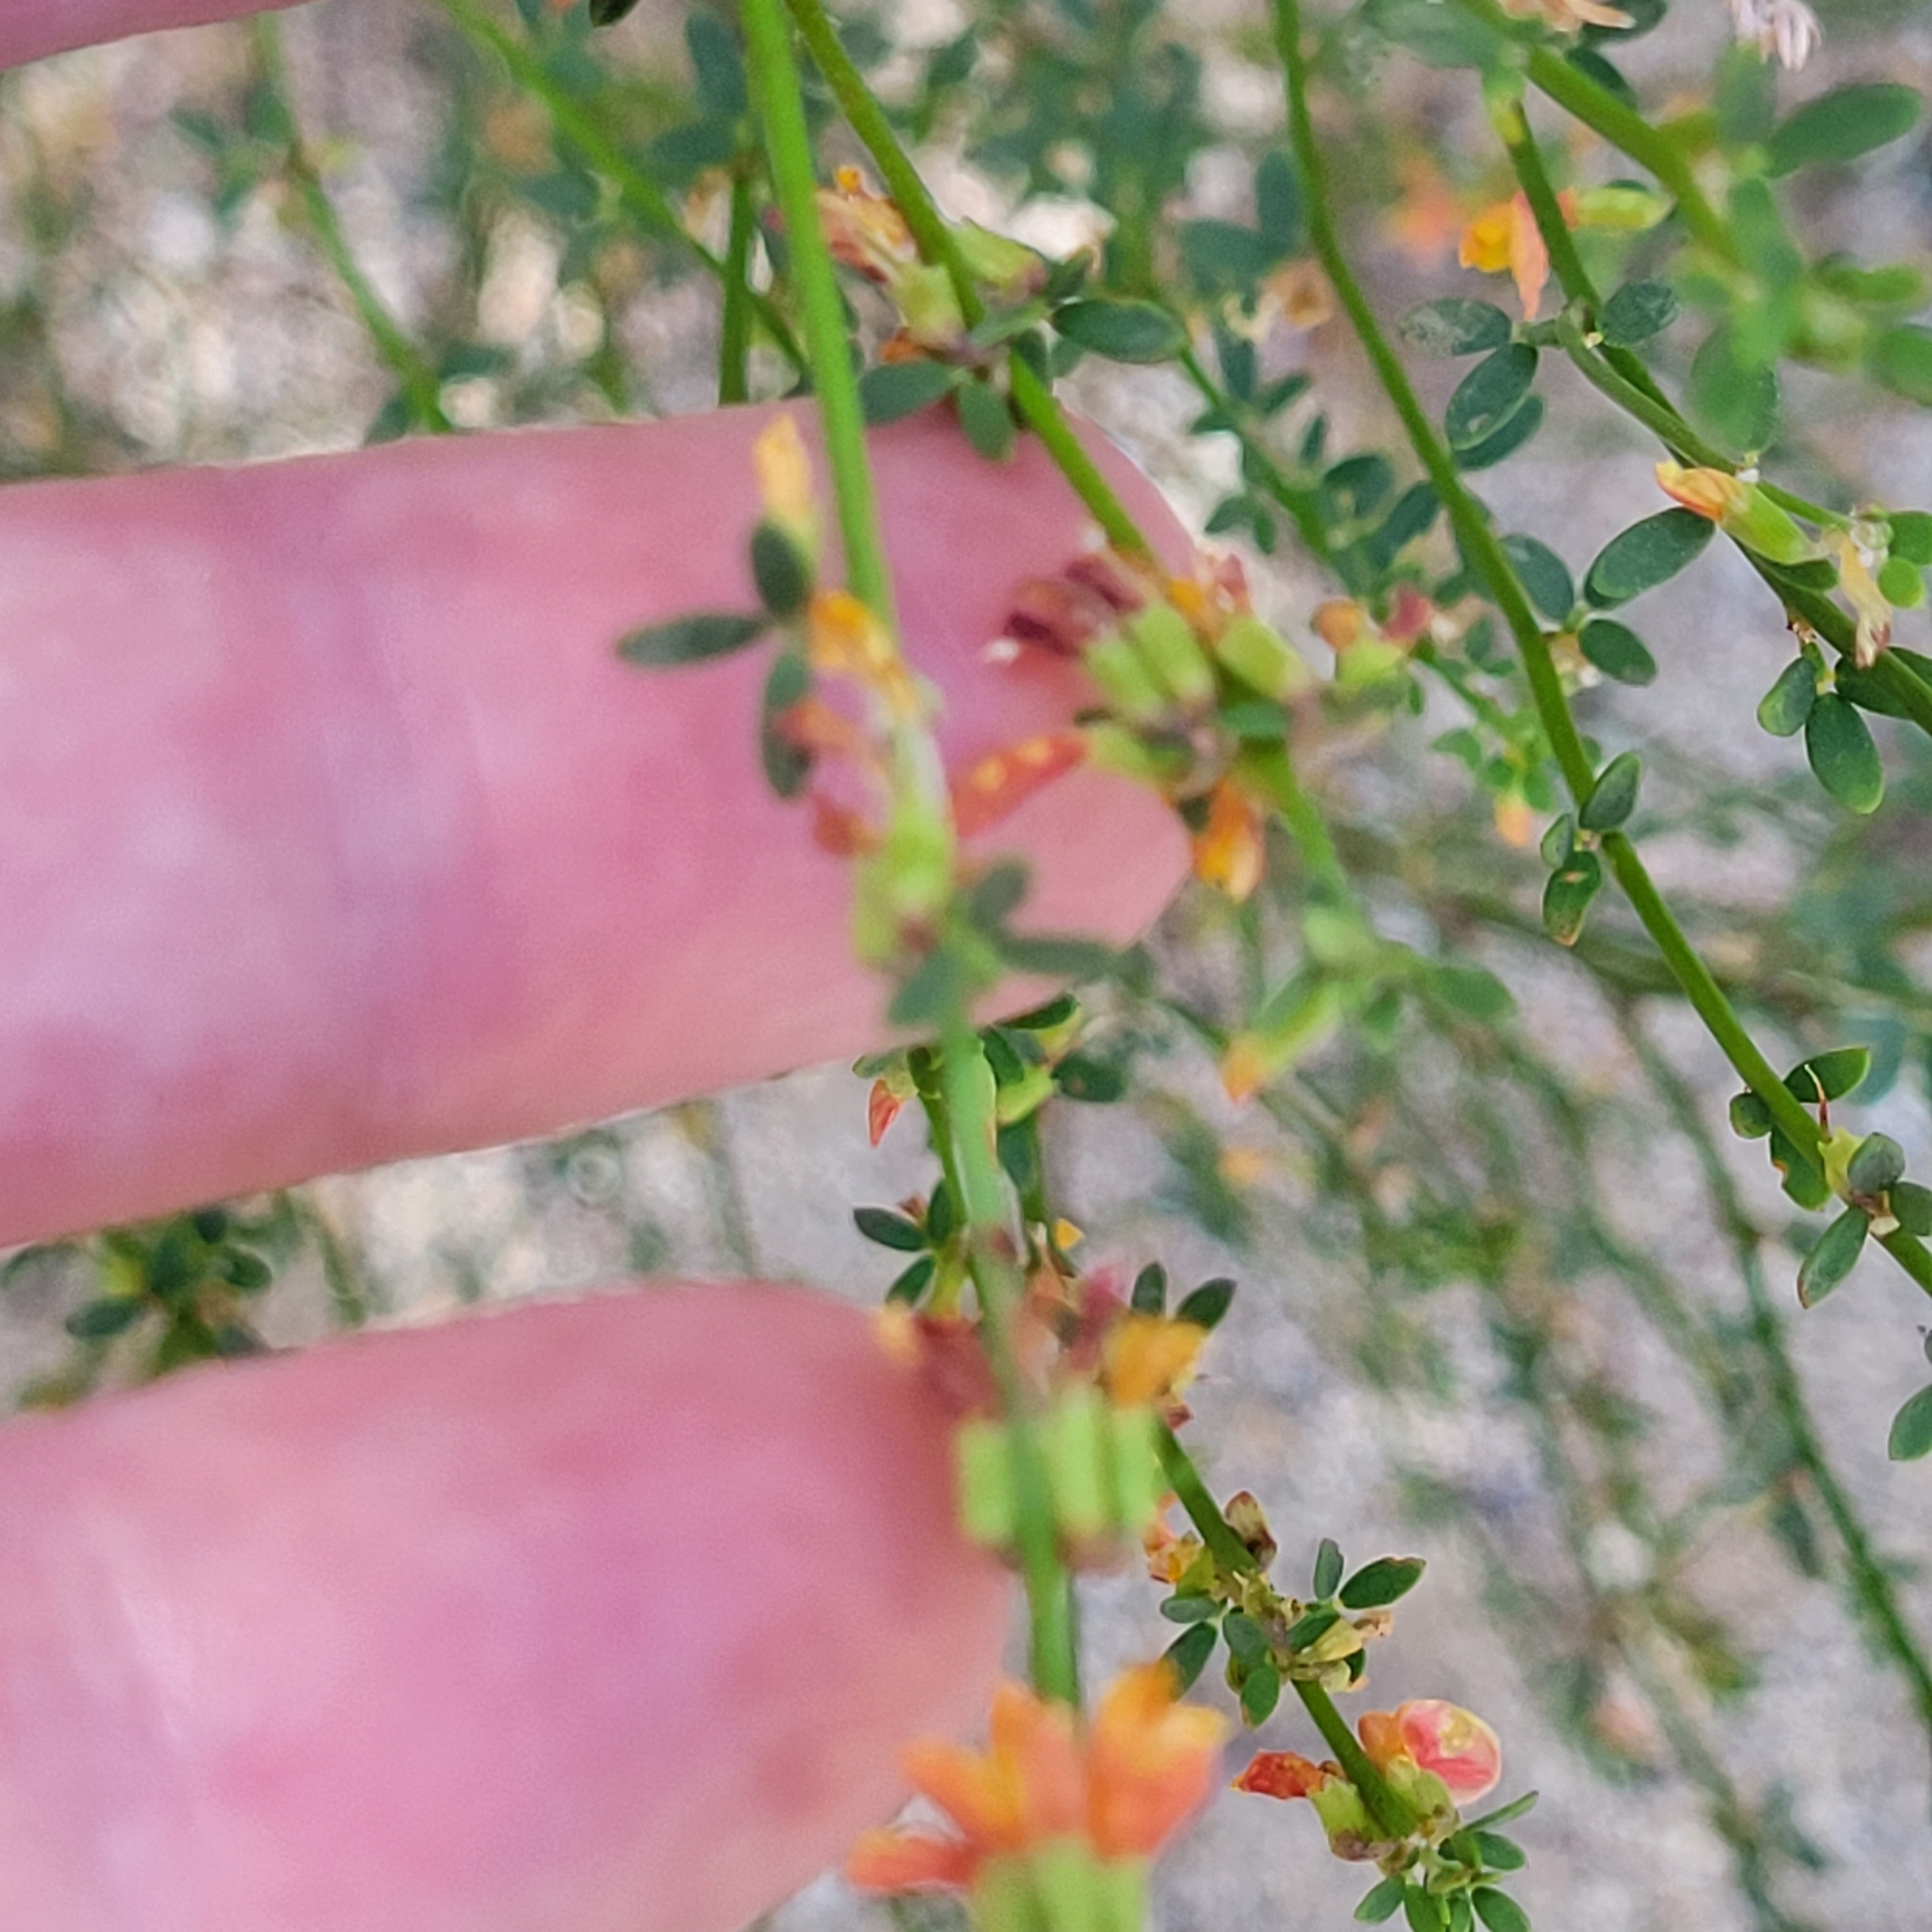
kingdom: Plantae
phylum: Tracheophyta
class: Magnoliopsida
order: Fabales
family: Fabaceae
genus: Acmispon
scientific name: Acmispon glaber
